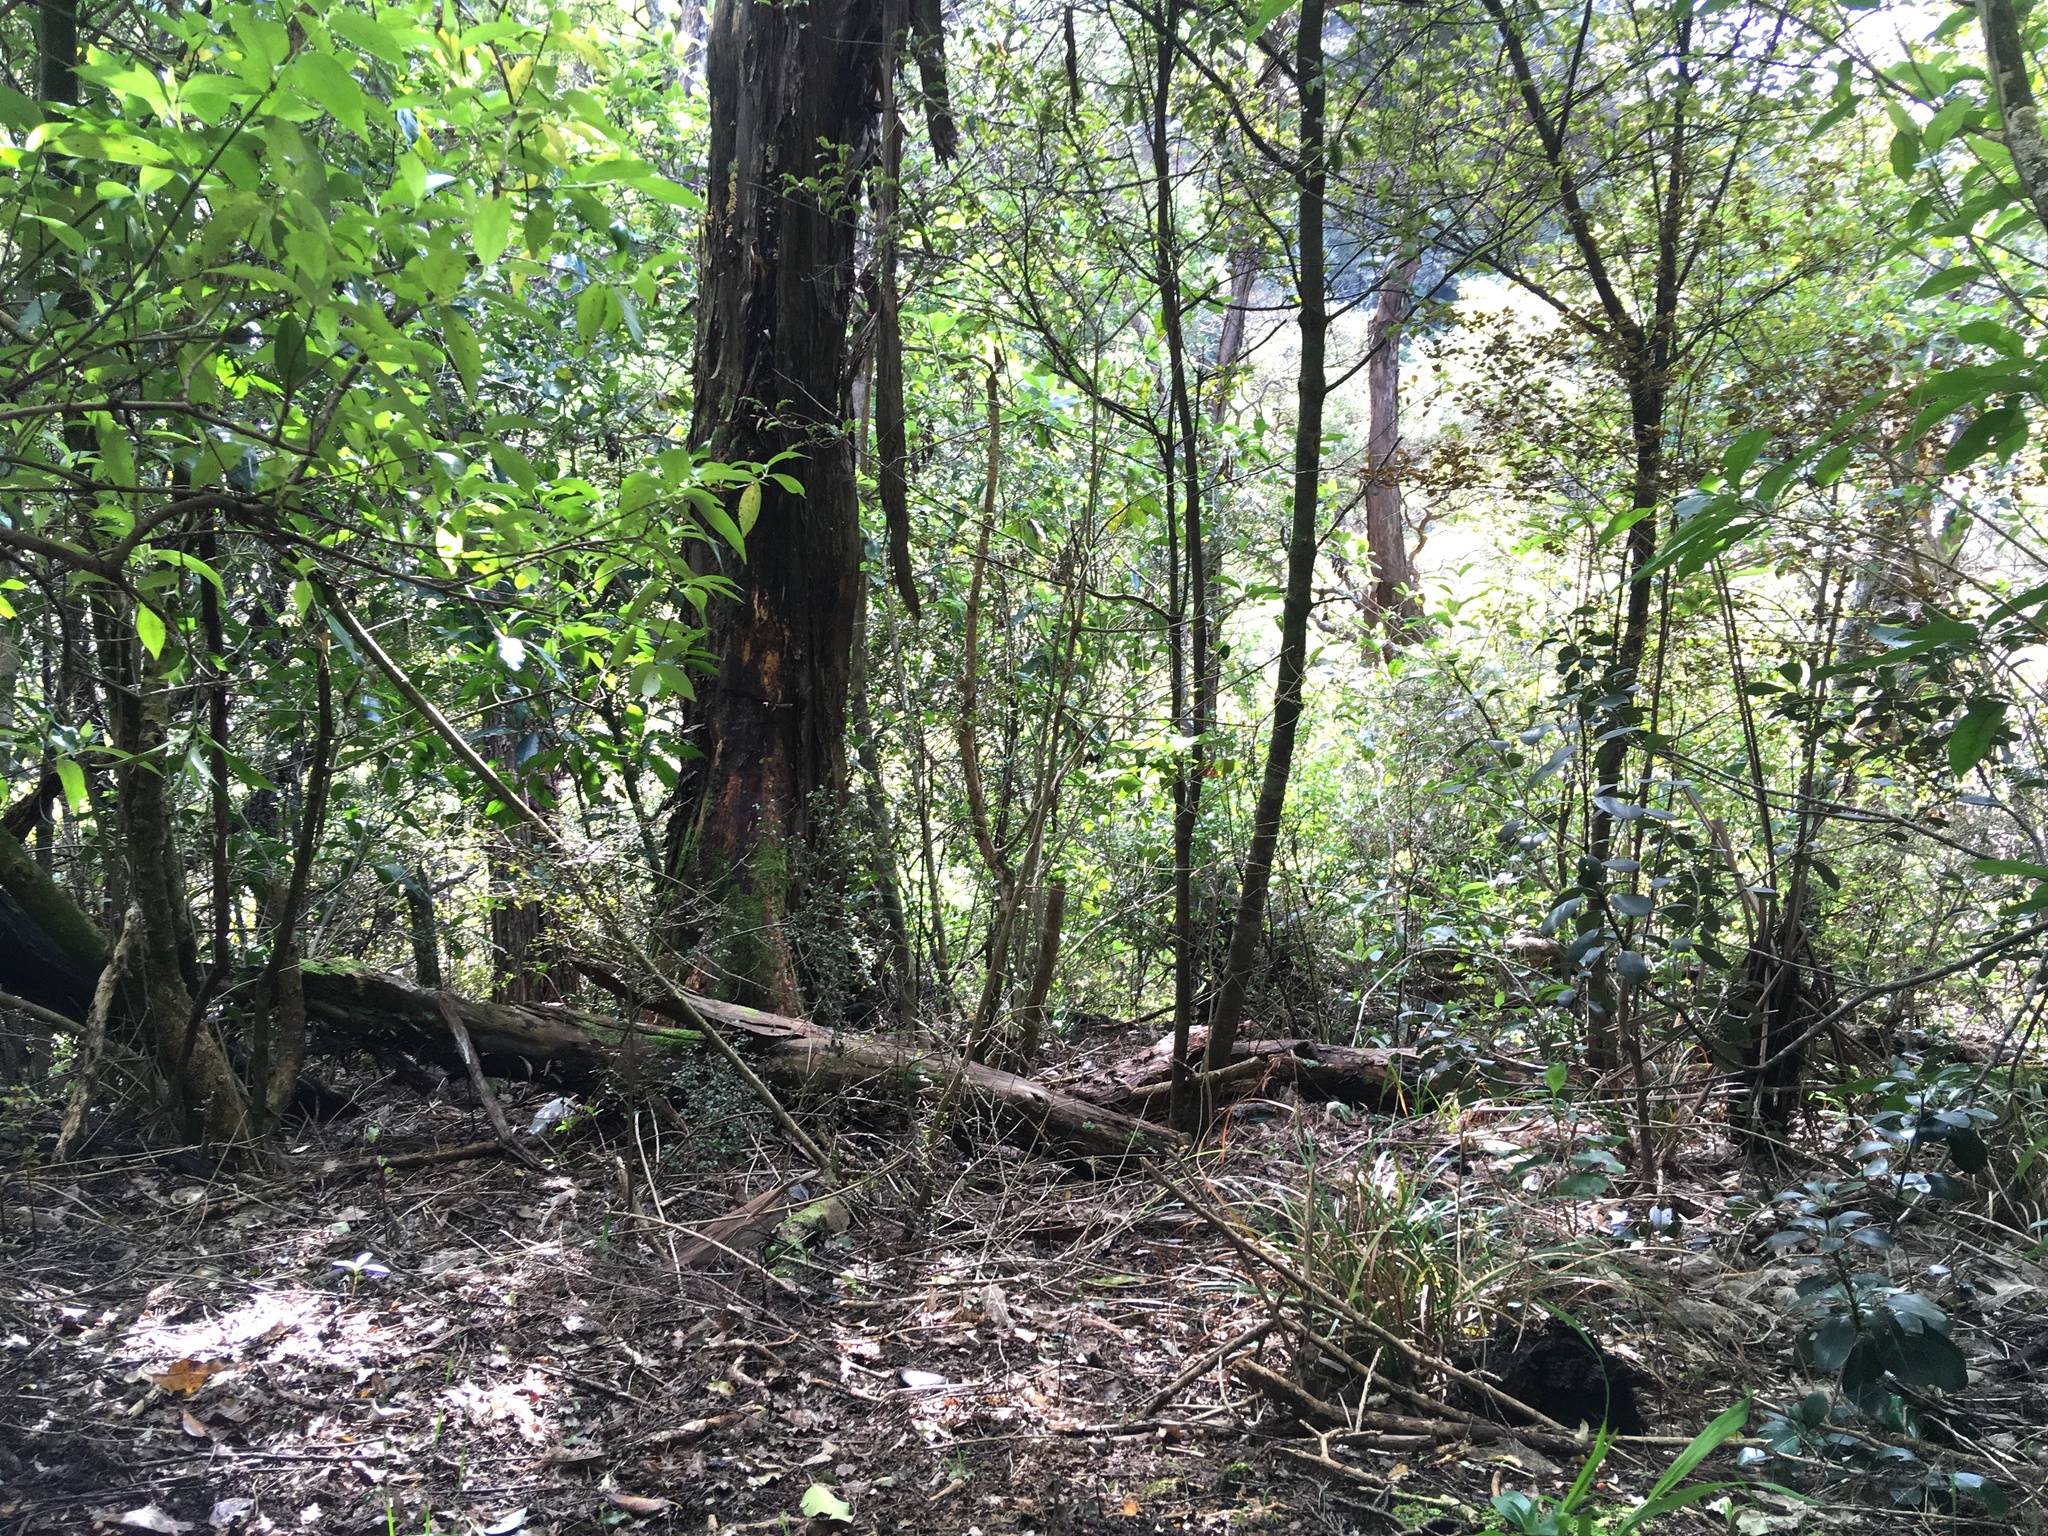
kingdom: Plantae
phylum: Tracheophyta
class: Magnoliopsida
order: Gentianales
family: Loganiaceae
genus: Geniostoma
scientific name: Geniostoma ligustrifolium
